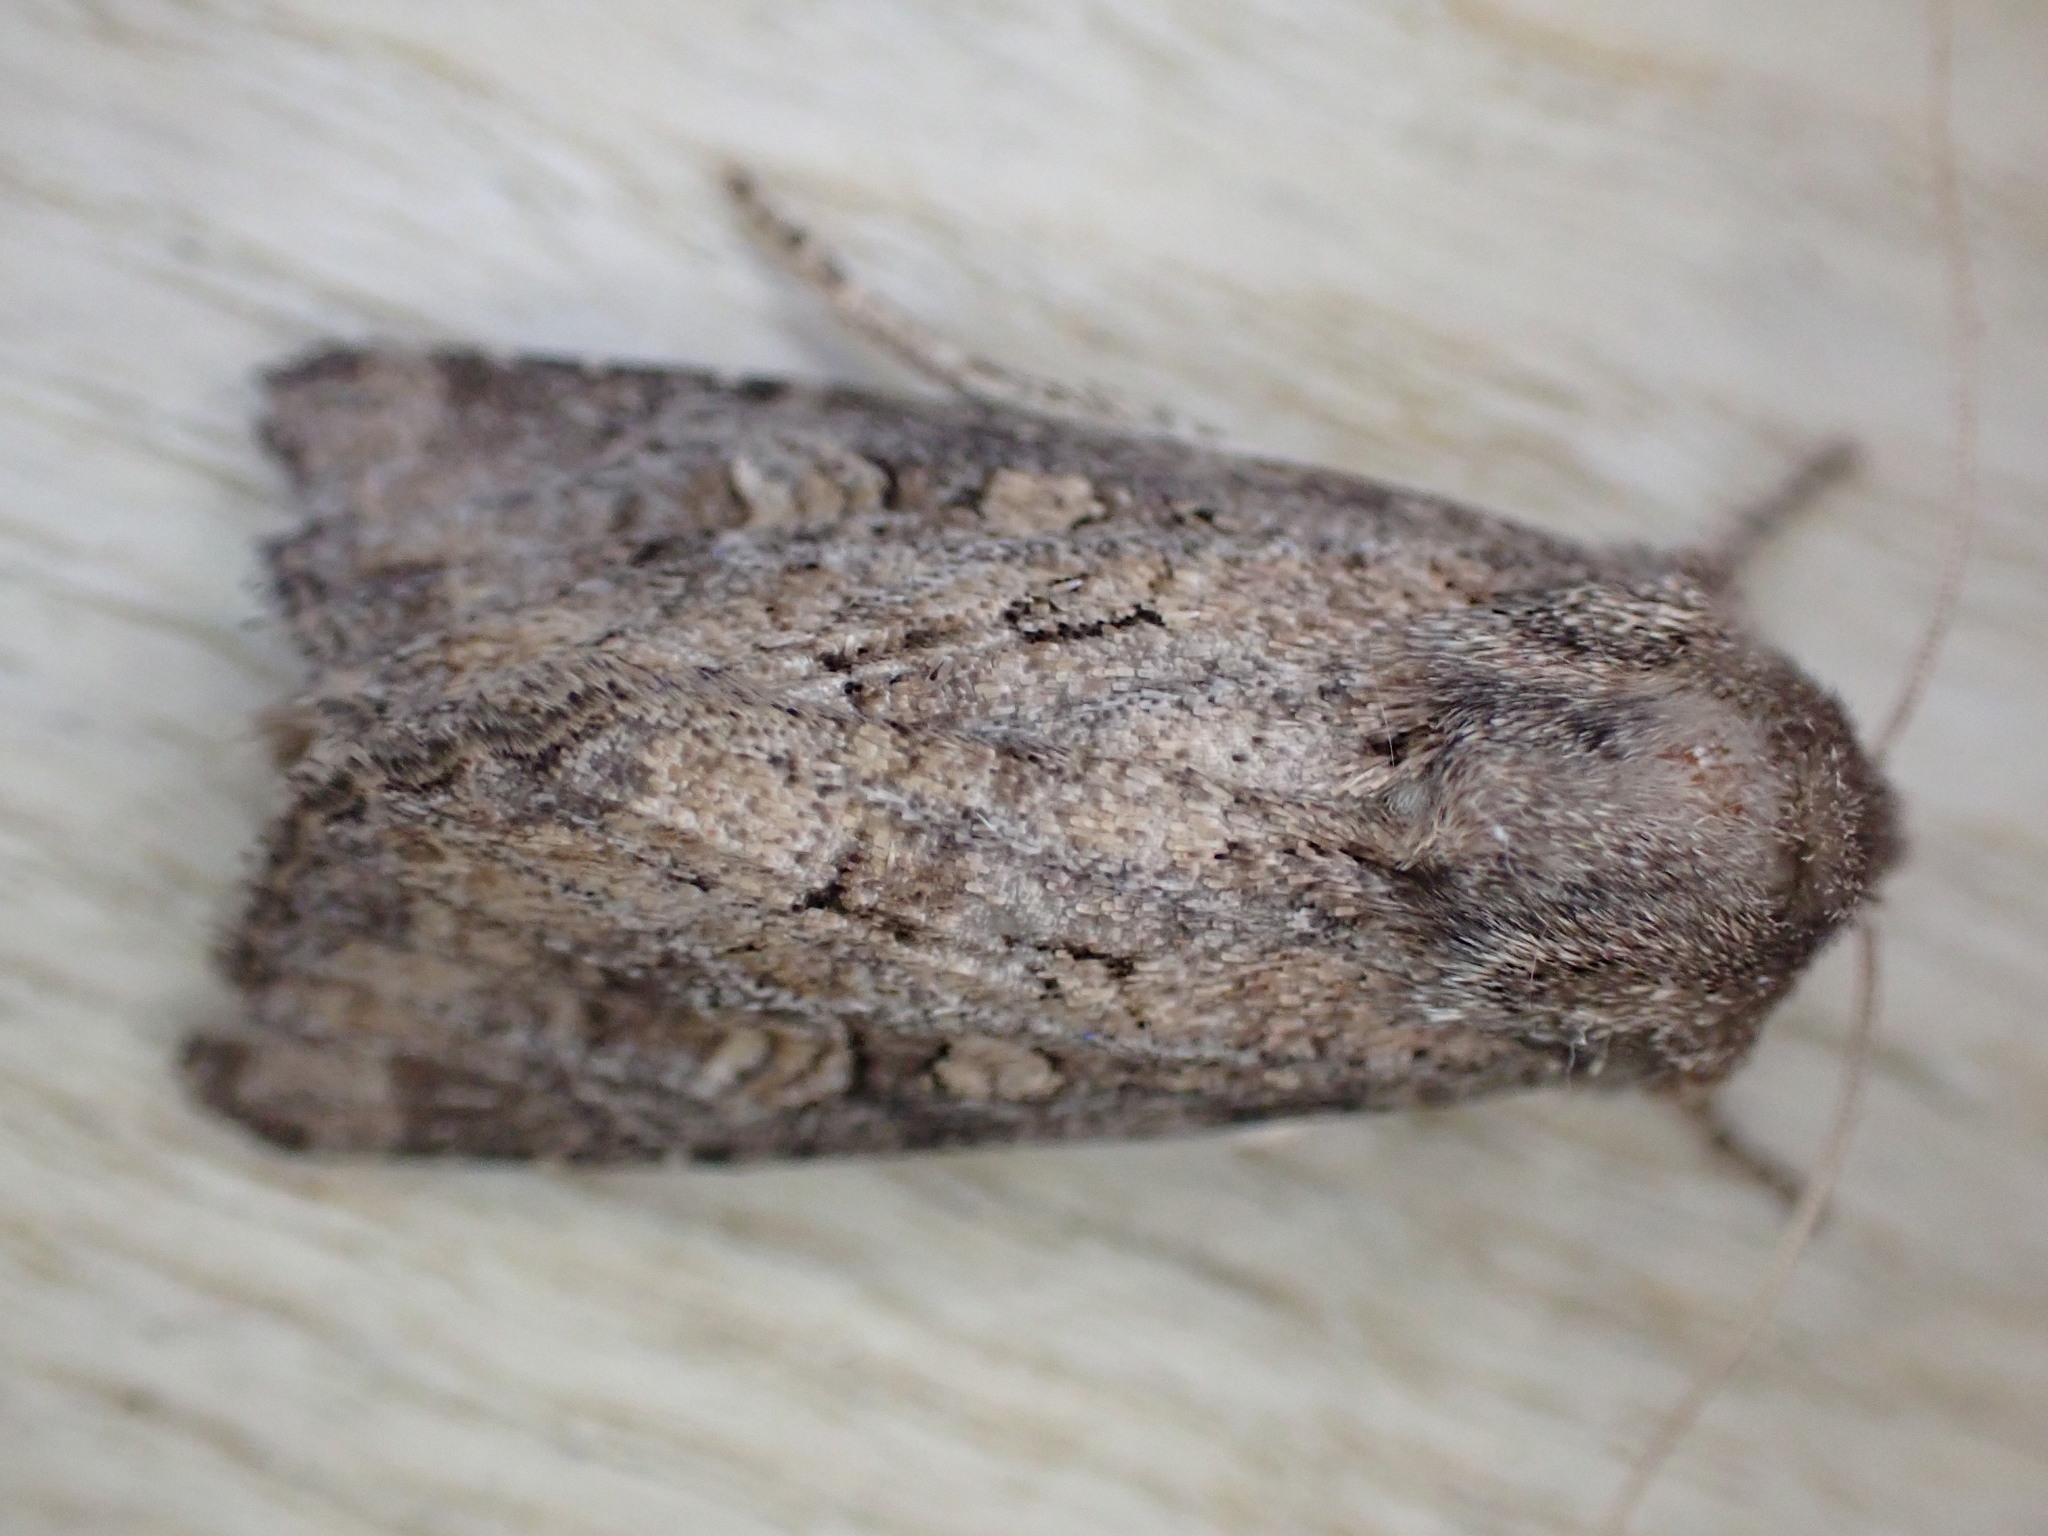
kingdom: Animalia
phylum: Arthropoda
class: Insecta
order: Lepidoptera
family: Noctuidae
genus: Luperina
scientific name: Luperina testacea
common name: Flounced rustic
